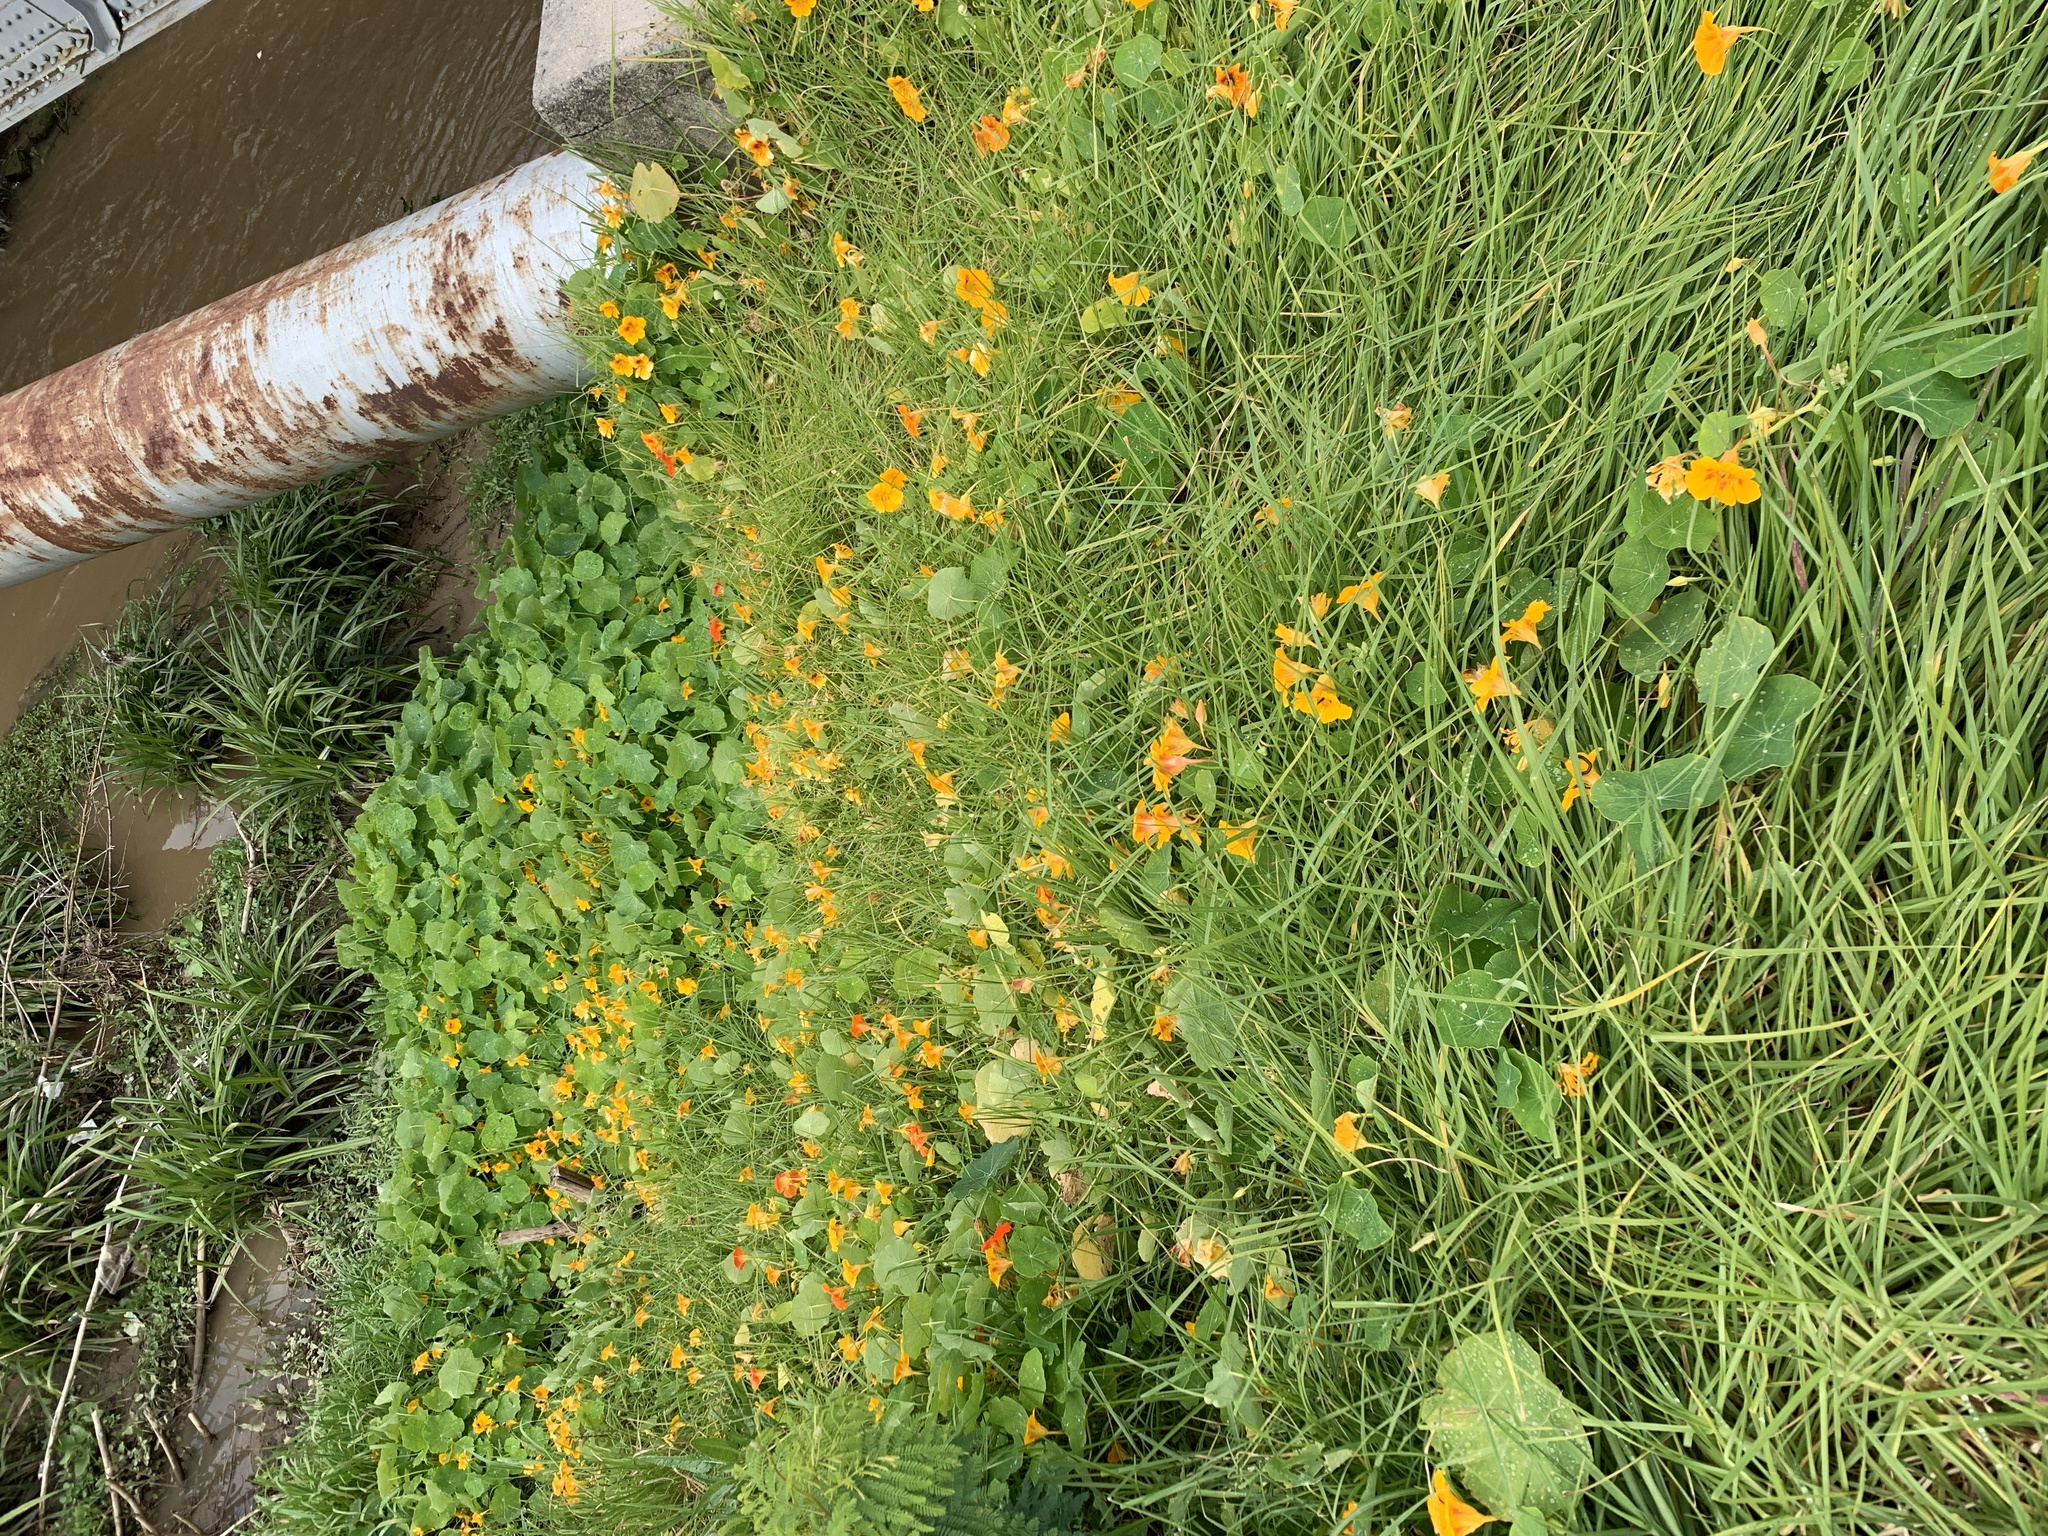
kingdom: Plantae
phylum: Tracheophyta
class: Magnoliopsida
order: Brassicales
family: Tropaeolaceae
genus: Tropaeolum
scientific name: Tropaeolum majus
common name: Nasturtium
